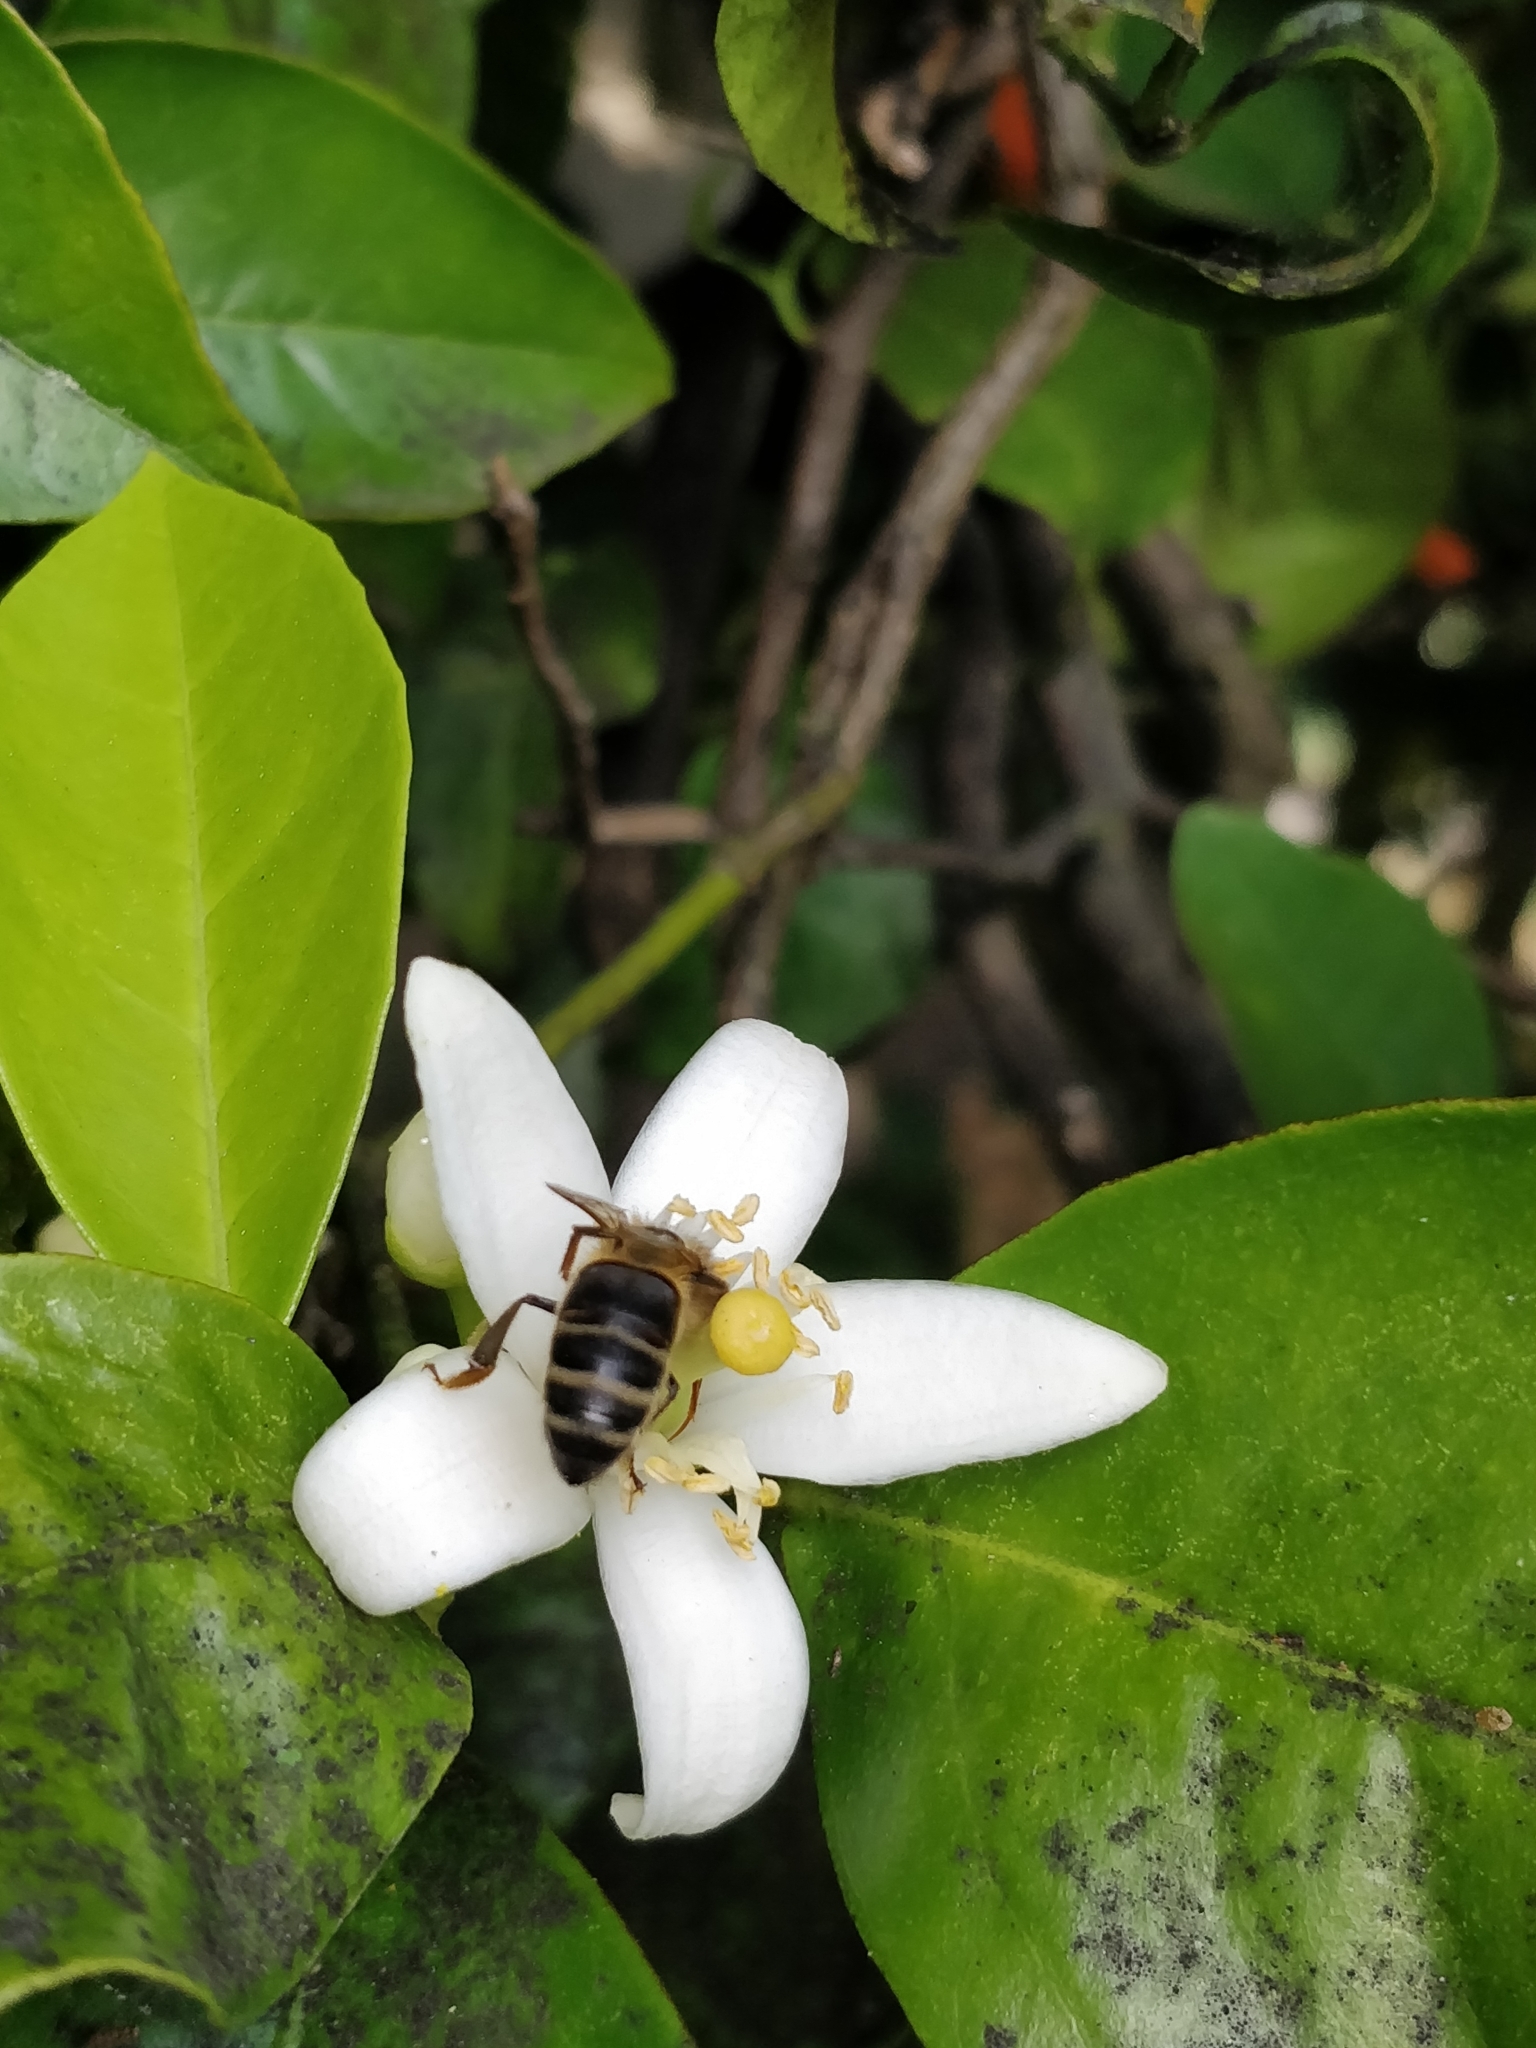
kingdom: Animalia
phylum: Arthropoda
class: Insecta
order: Hymenoptera
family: Apidae
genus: Apis
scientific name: Apis mellifera
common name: Honey bee
